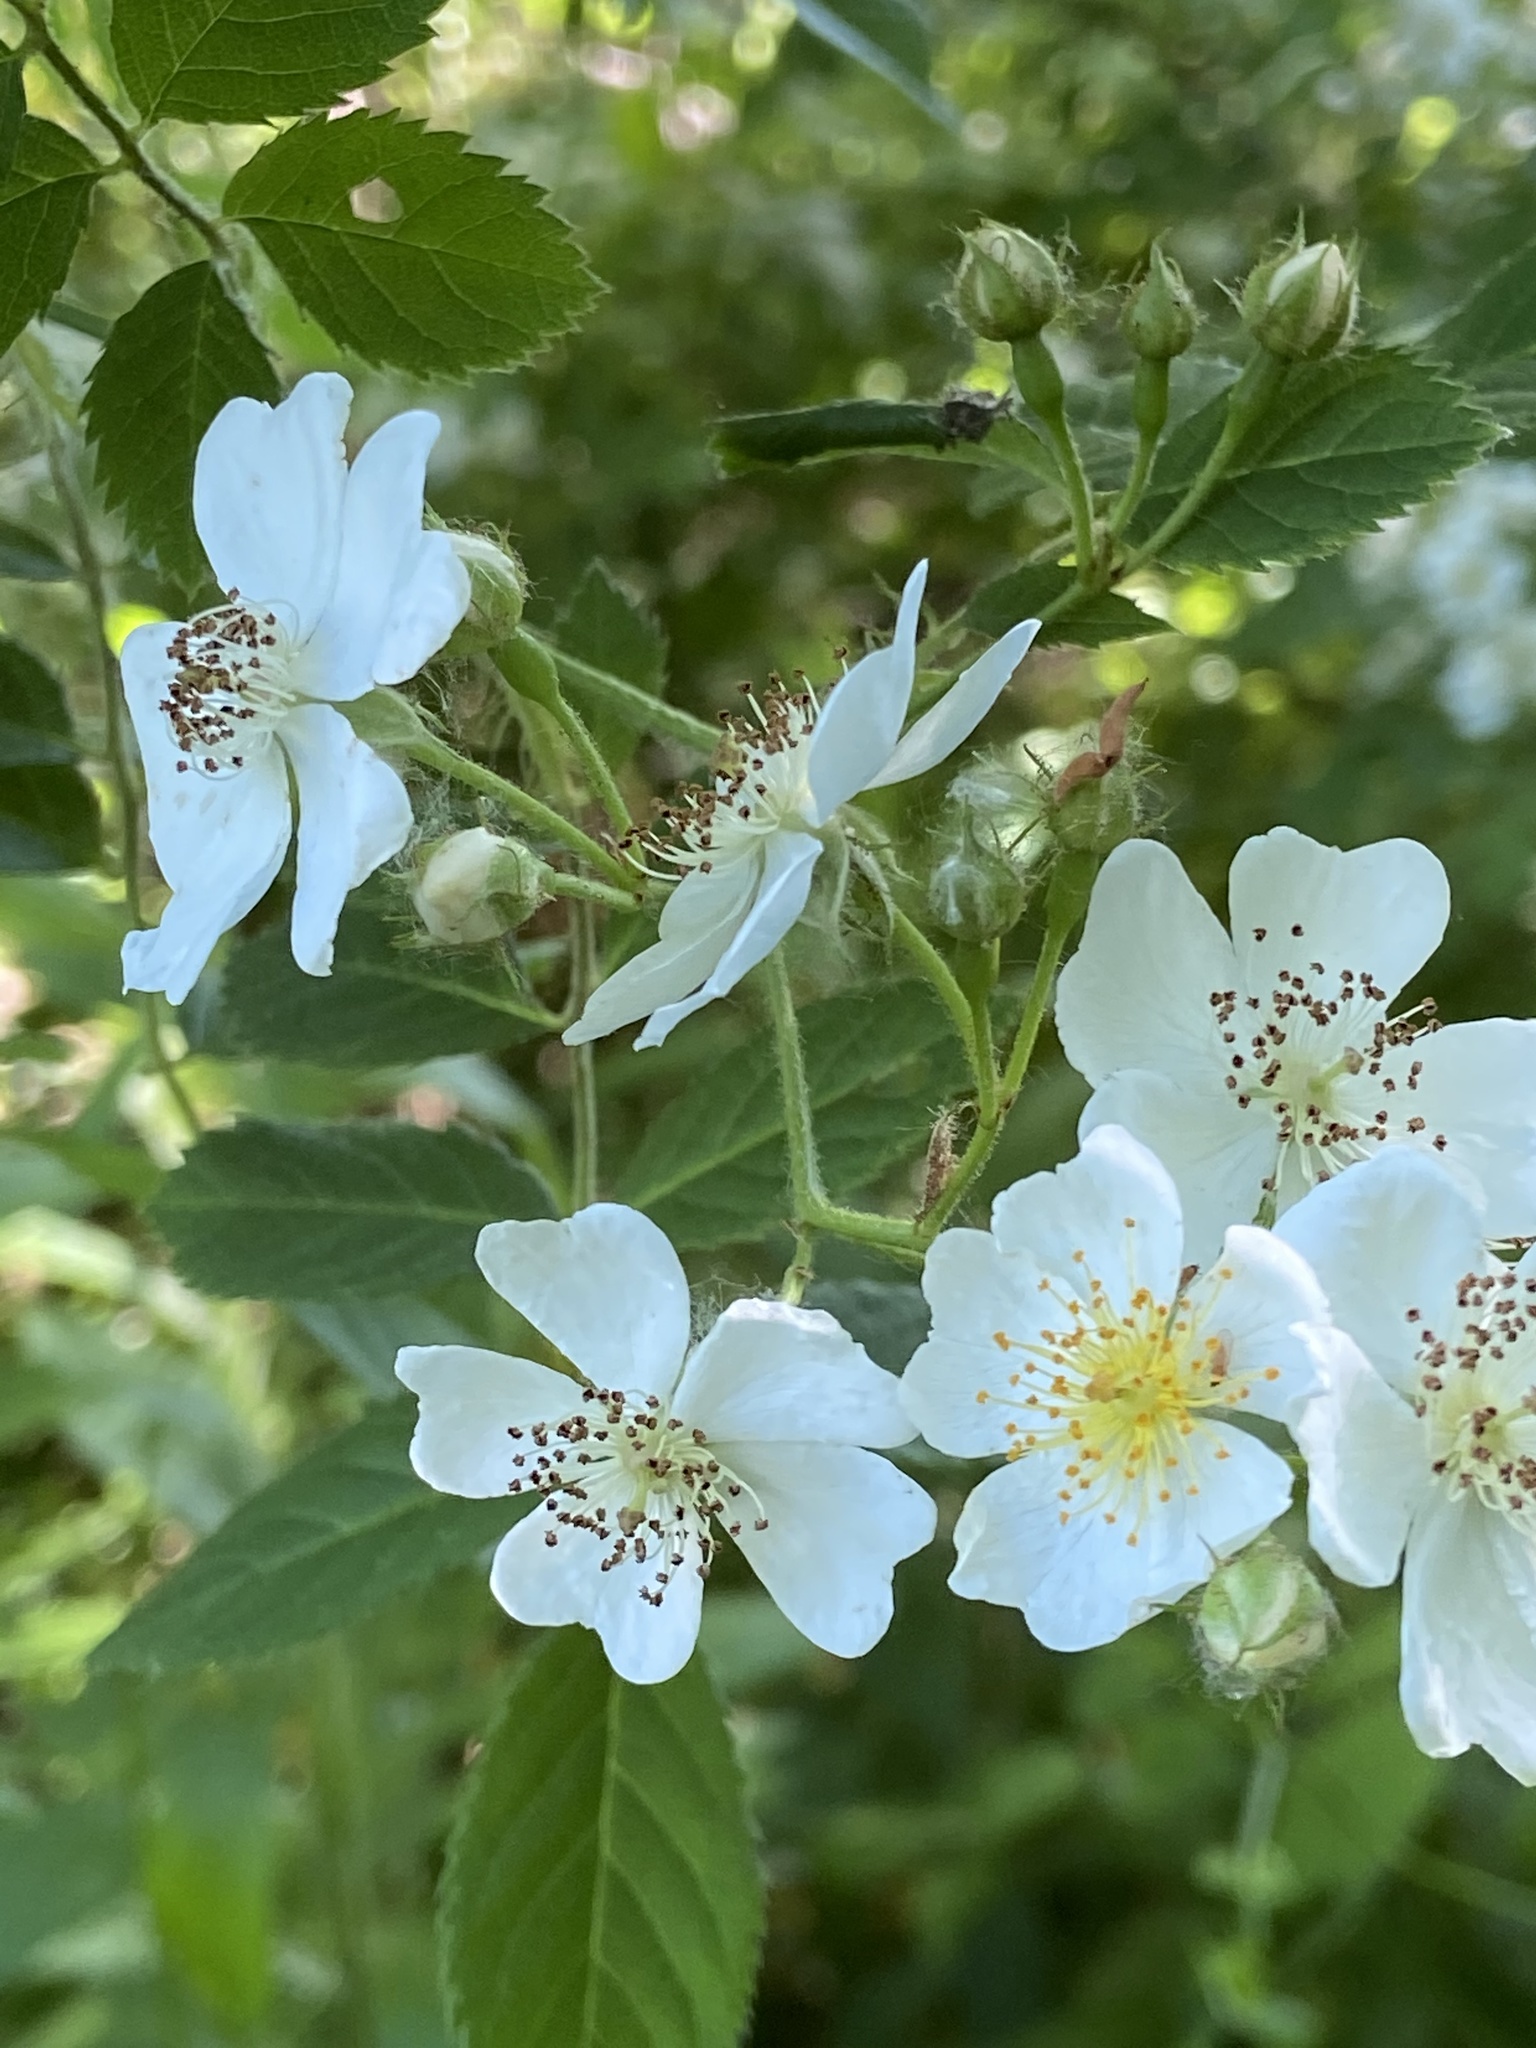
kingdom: Plantae
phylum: Tracheophyta
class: Magnoliopsida
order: Rosales
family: Rosaceae
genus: Rosa
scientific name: Rosa multiflora
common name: Multiflora rose
